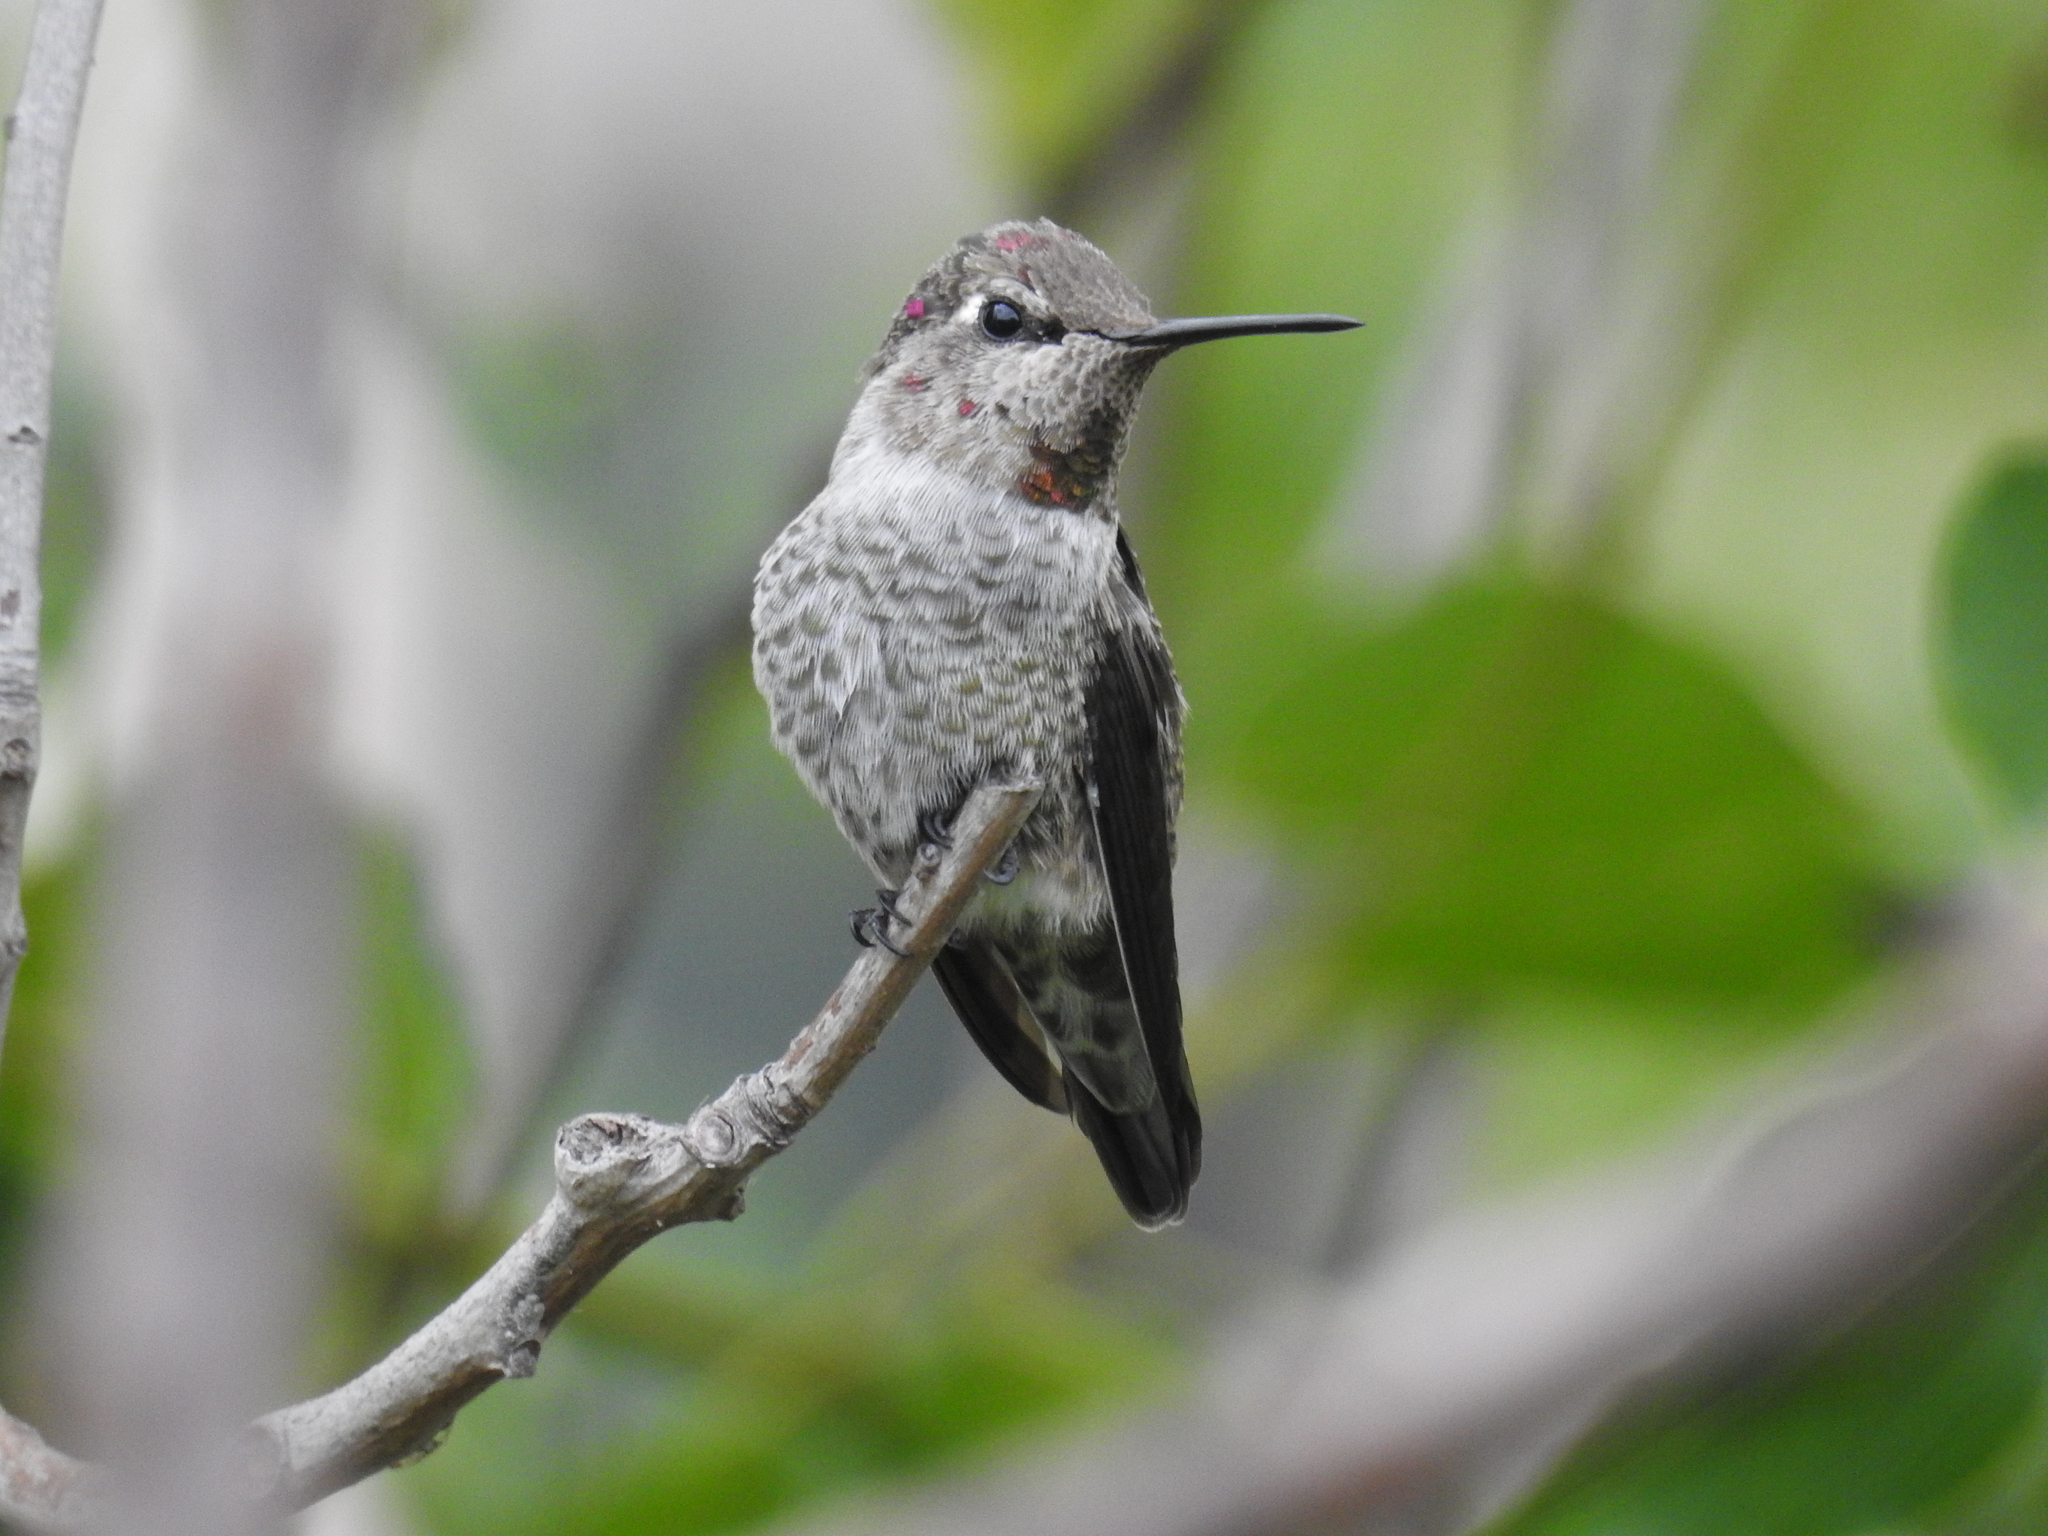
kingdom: Animalia
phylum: Chordata
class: Aves
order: Apodiformes
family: Trochilidae
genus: Calypte
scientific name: Calypte anna
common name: Anna's hummingbird
